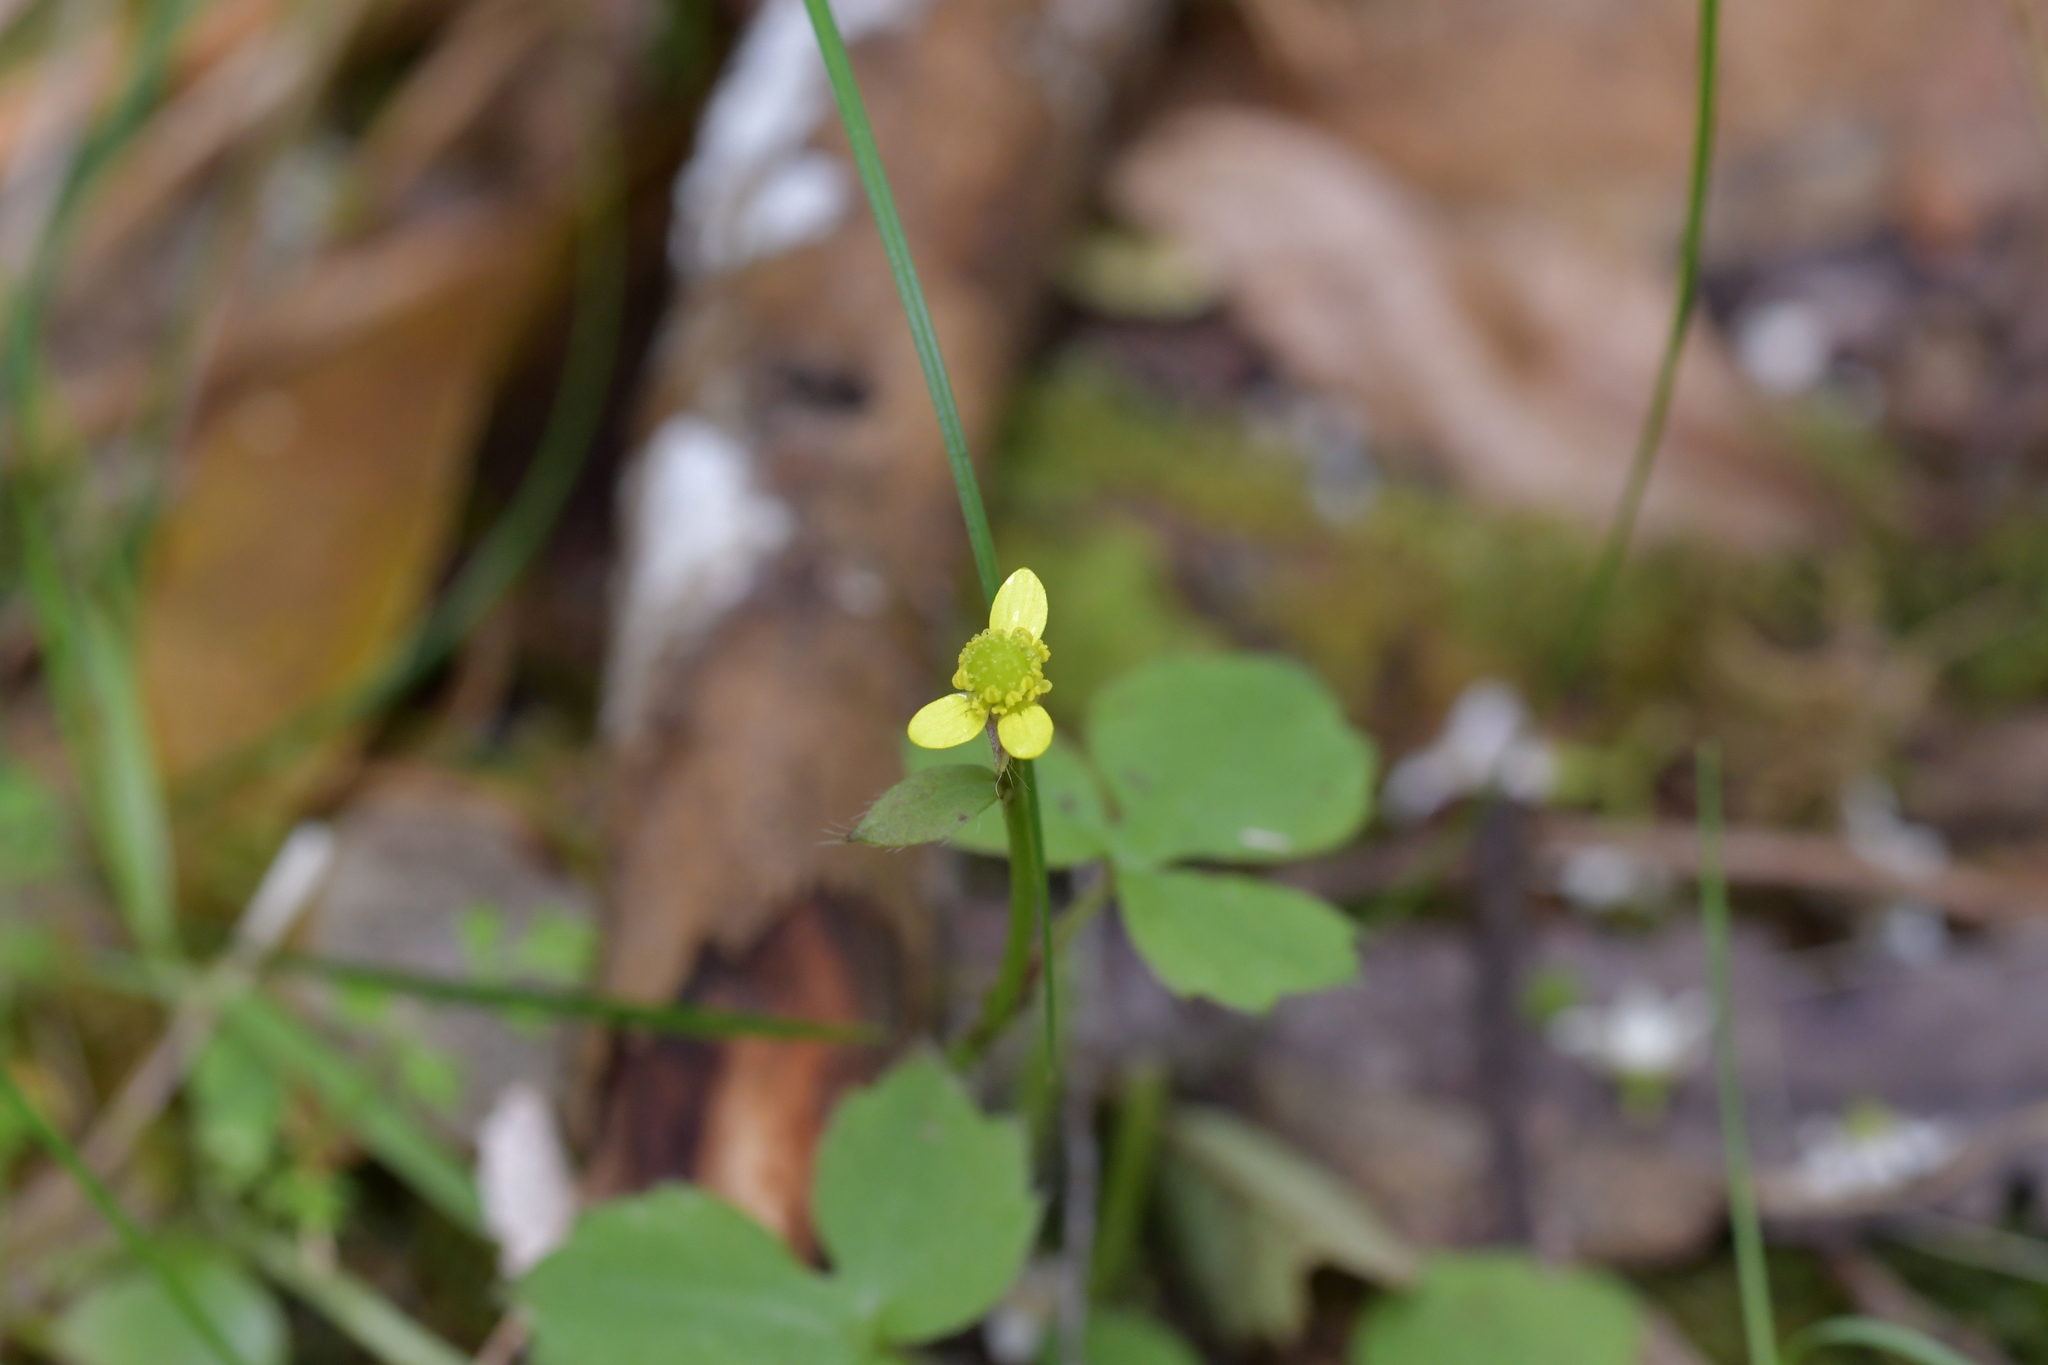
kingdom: Plantae
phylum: Tracheophyta
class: Magnoliopsida
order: Ranunculales
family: Ranunculaceae
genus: Ranunculus
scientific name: Ranunculus reflexus
